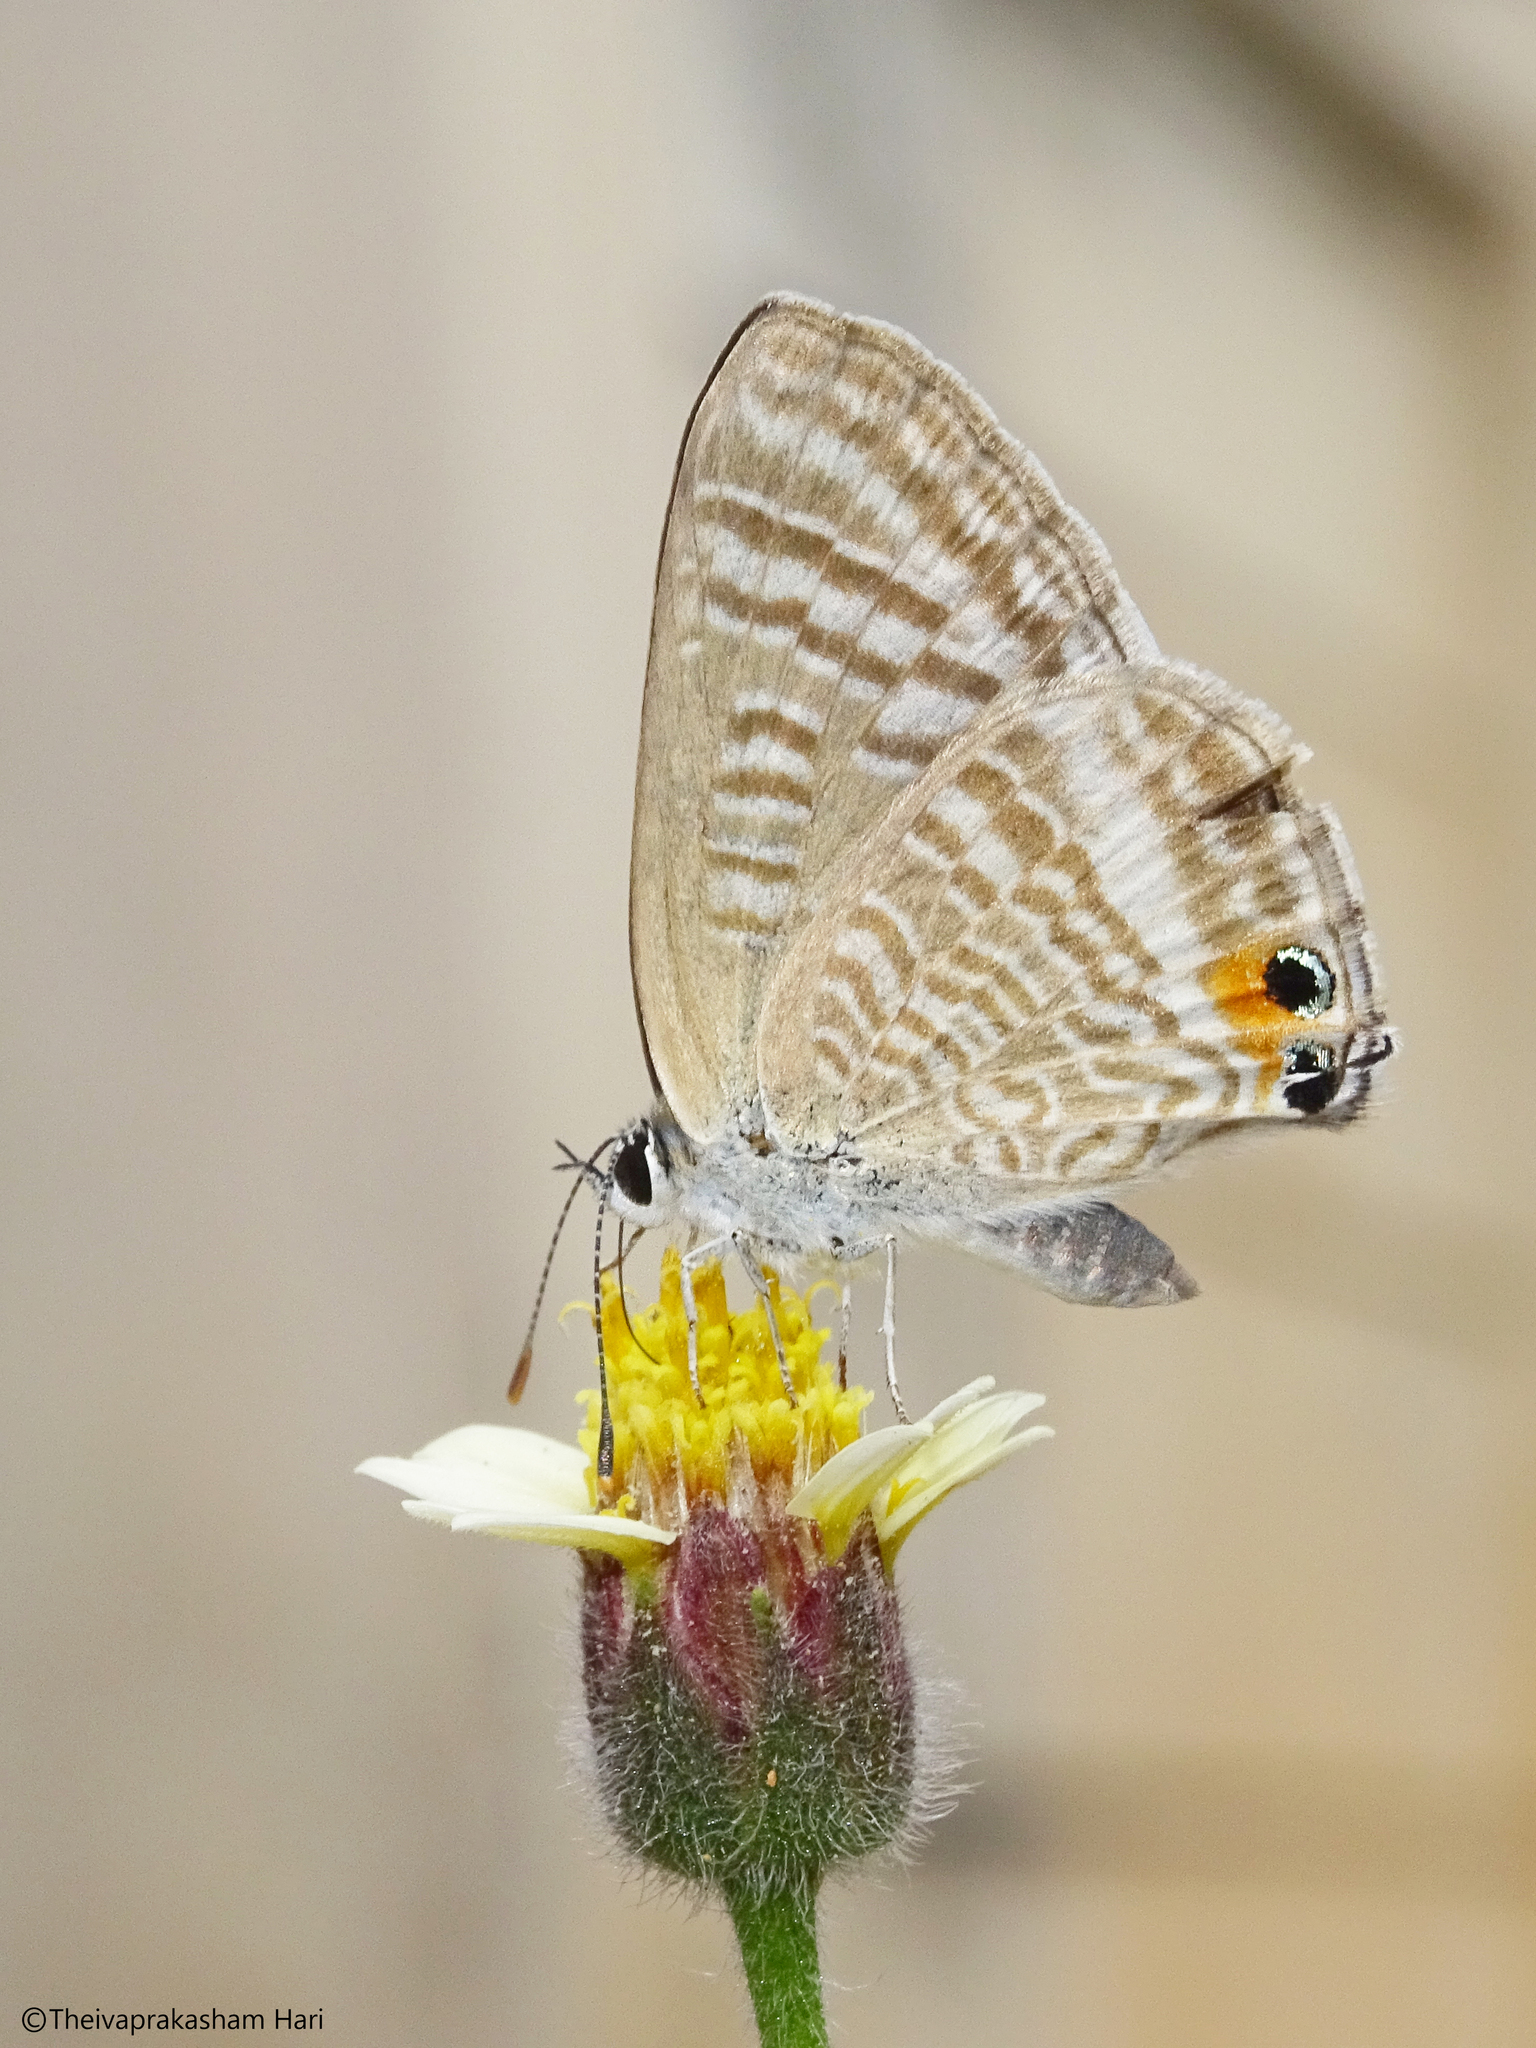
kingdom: Animalia
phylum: Arthropoda
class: Insecta
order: Lepidoptera
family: Lycaenidae
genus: Lampides
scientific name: Lampides boeticus
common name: Long-tailed blue
